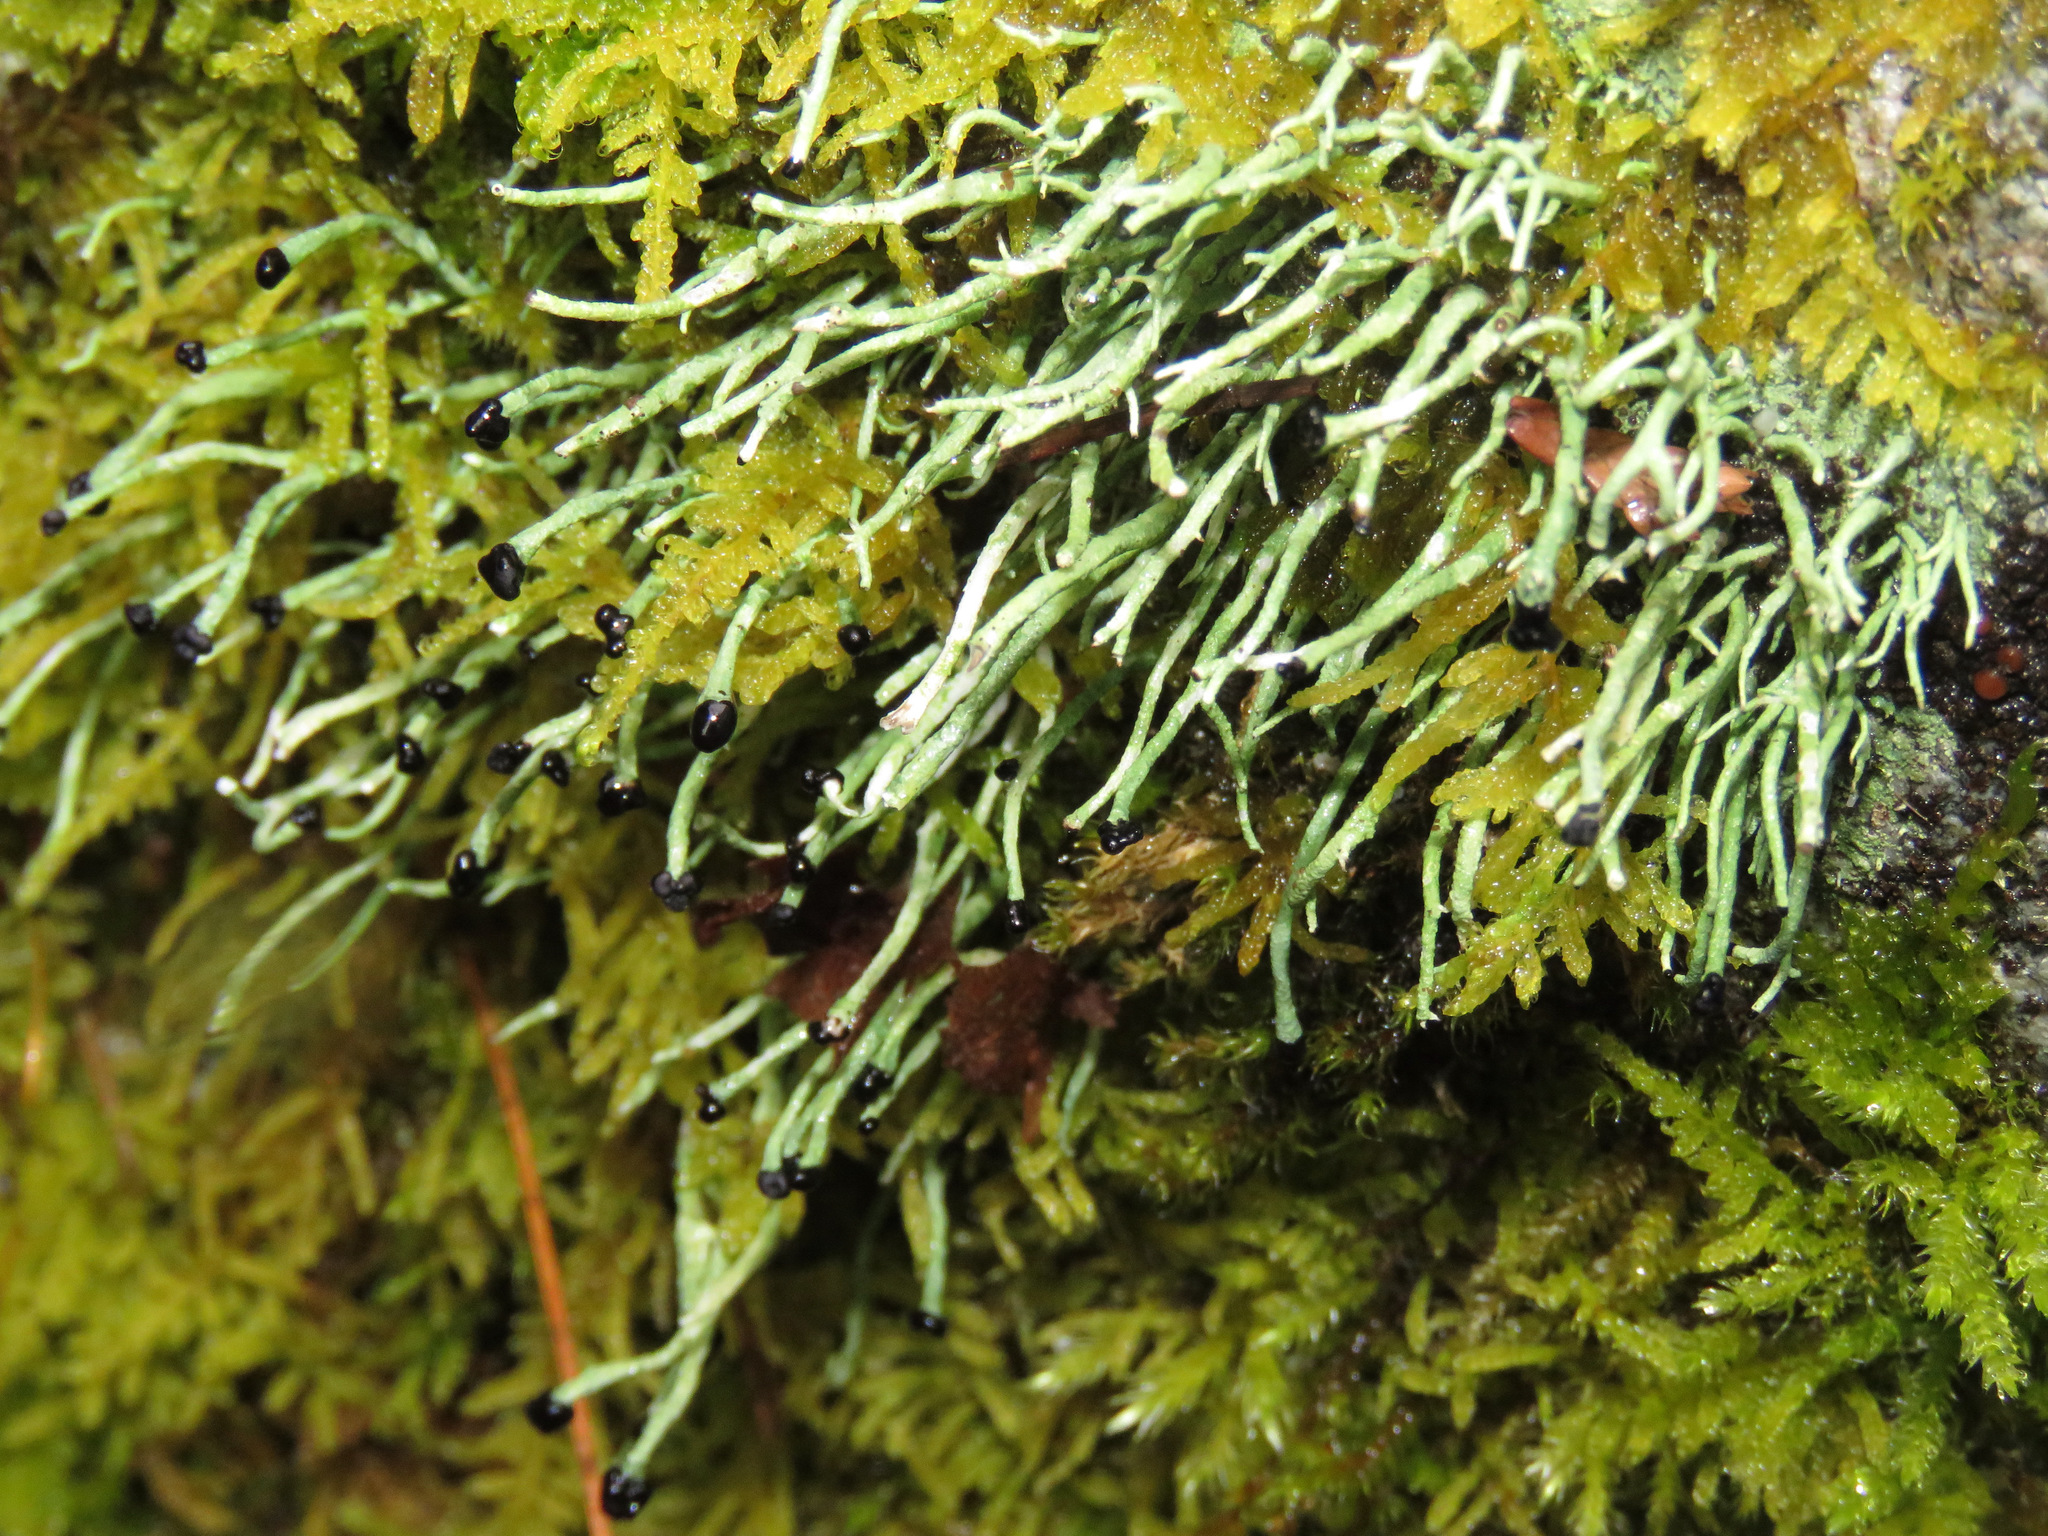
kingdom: Fungi
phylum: Ascomycota
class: Lecanoromycetes
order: Lecanorales
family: Cladoniaceae
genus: Pilophorus
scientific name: Pilophorus acicularis
